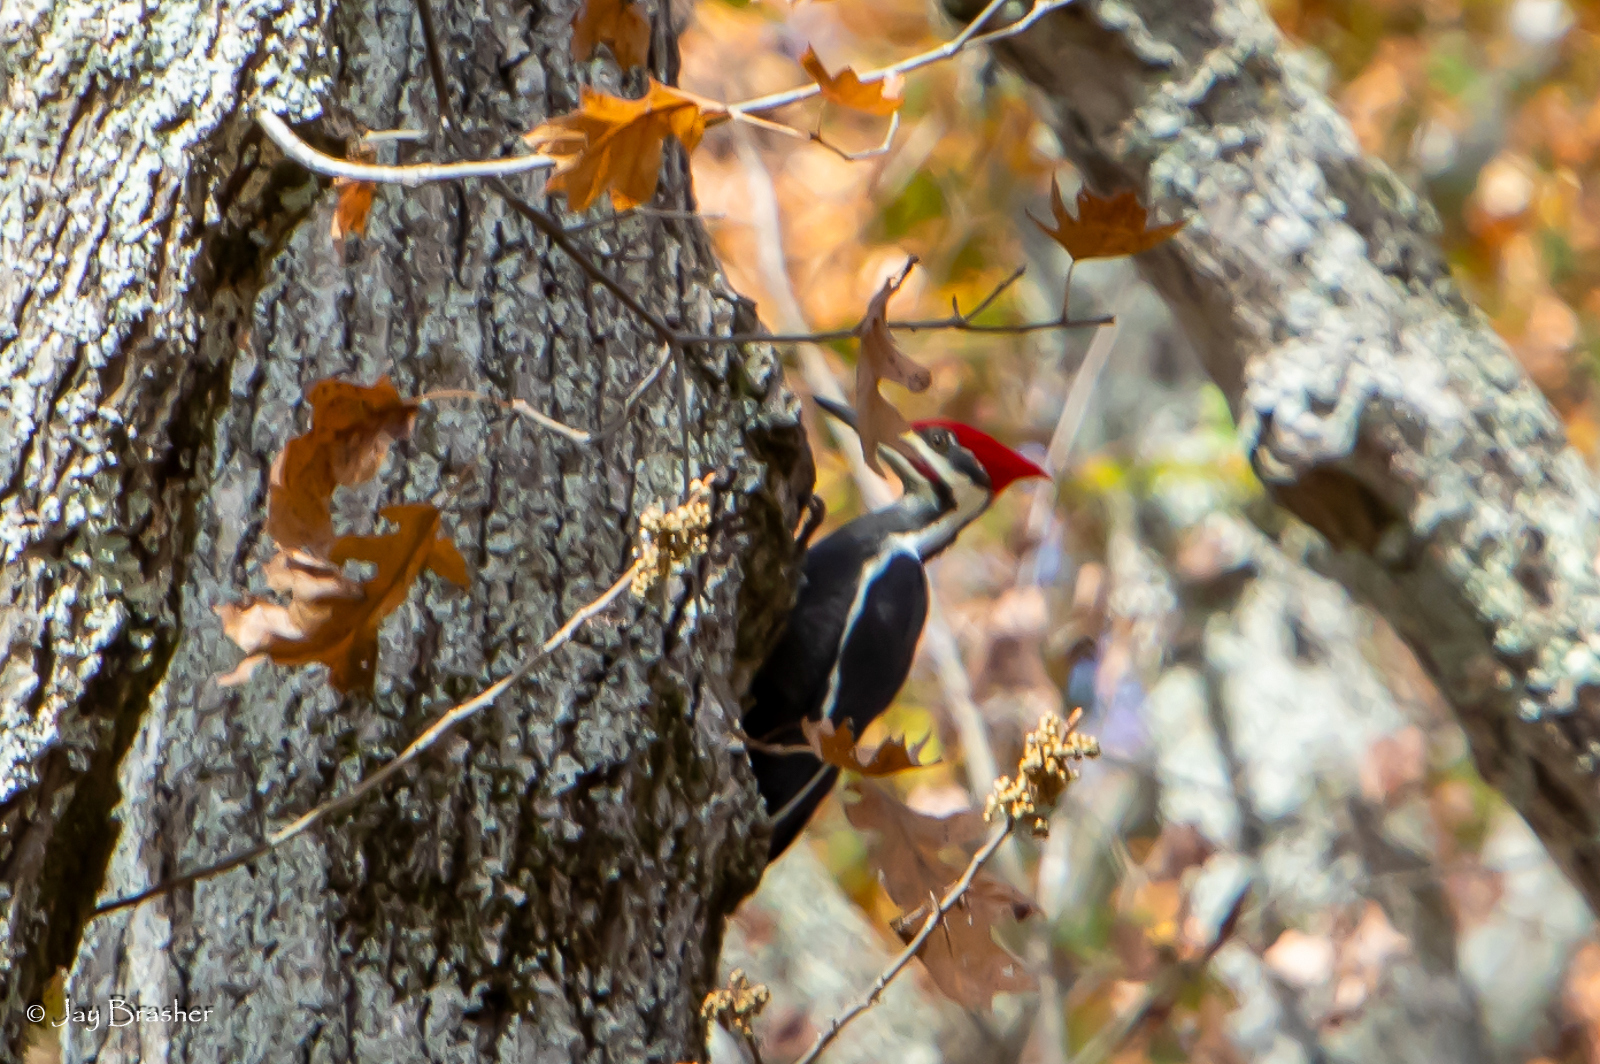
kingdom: Animalia
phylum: Chordata
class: Aves
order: Piciformes
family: Picidae
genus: Dryocopus
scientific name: Dryocopus pileatus
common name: Pileated woodpecker
